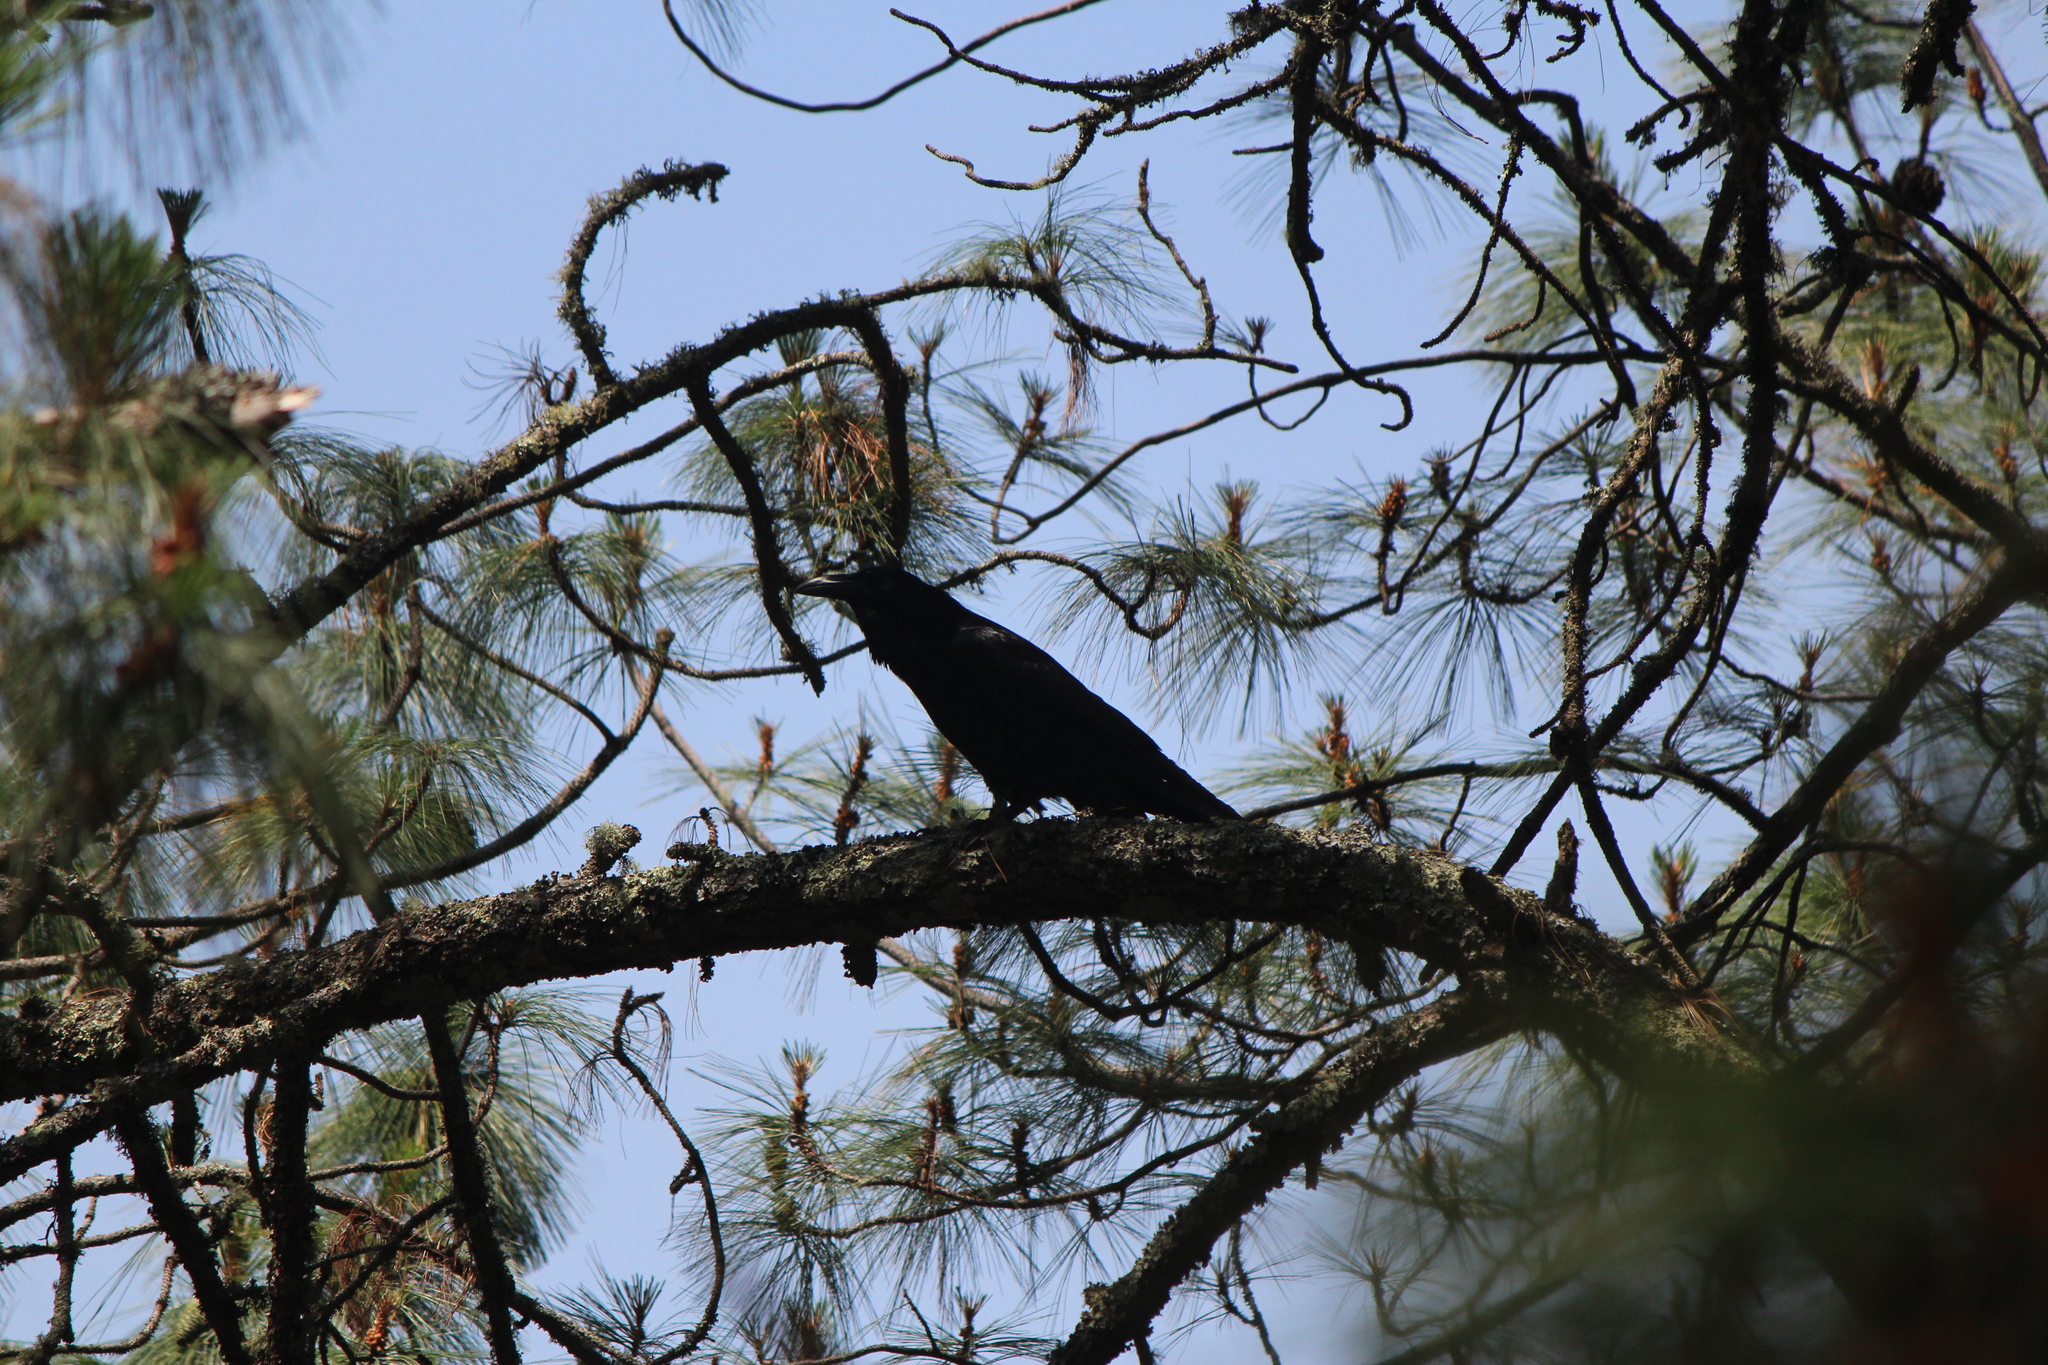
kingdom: Animalia
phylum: Chordata
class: Aves
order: Passeriformes
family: Corvidae
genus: Corvus
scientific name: Corvus corax
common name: Common raven
